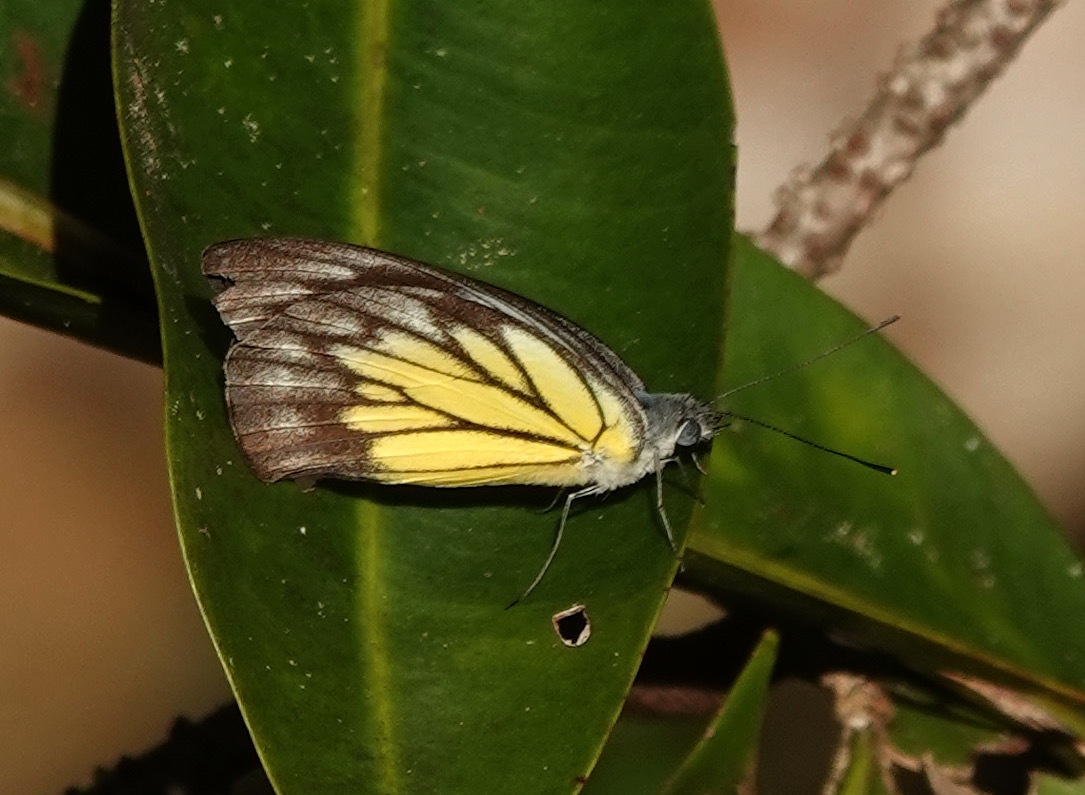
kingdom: Animalia
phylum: Arthropoda
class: Insecta
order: Lepidoptera
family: Pieridae
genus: Appias
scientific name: Appias cardena
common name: Yellow puffin
